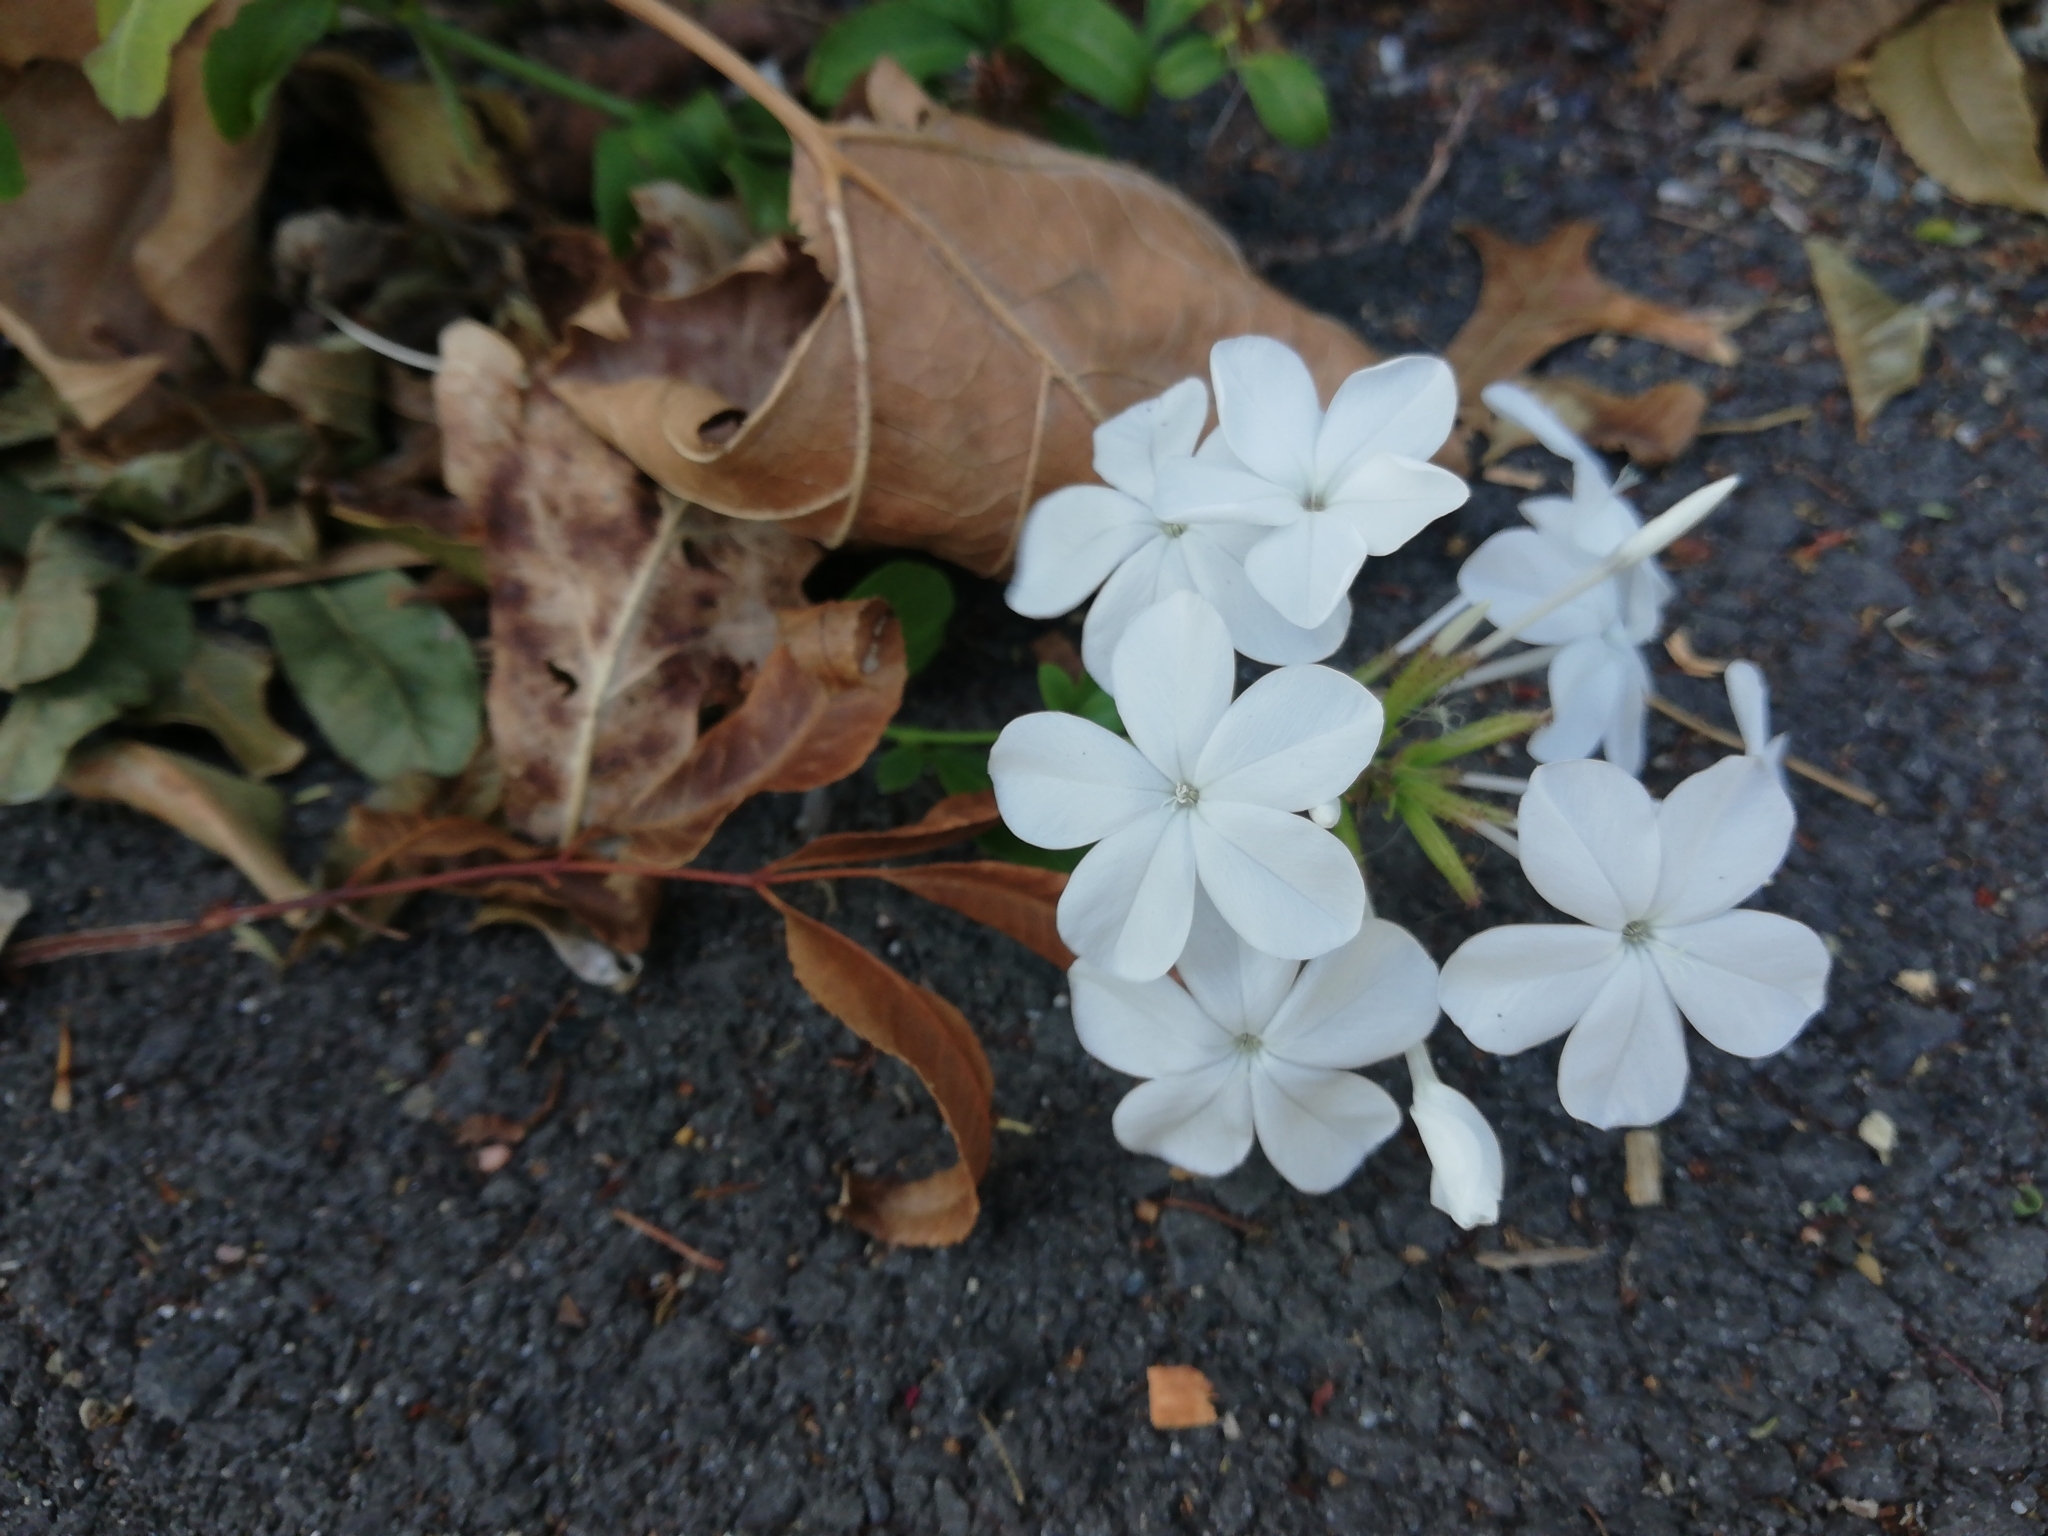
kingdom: Plantae
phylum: Tracheophyta
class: Magnoliopsida
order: Caryophyllales
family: Plumbaginaceae
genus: Plumbago
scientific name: Plumbago auriculata
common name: Cape leadwort
